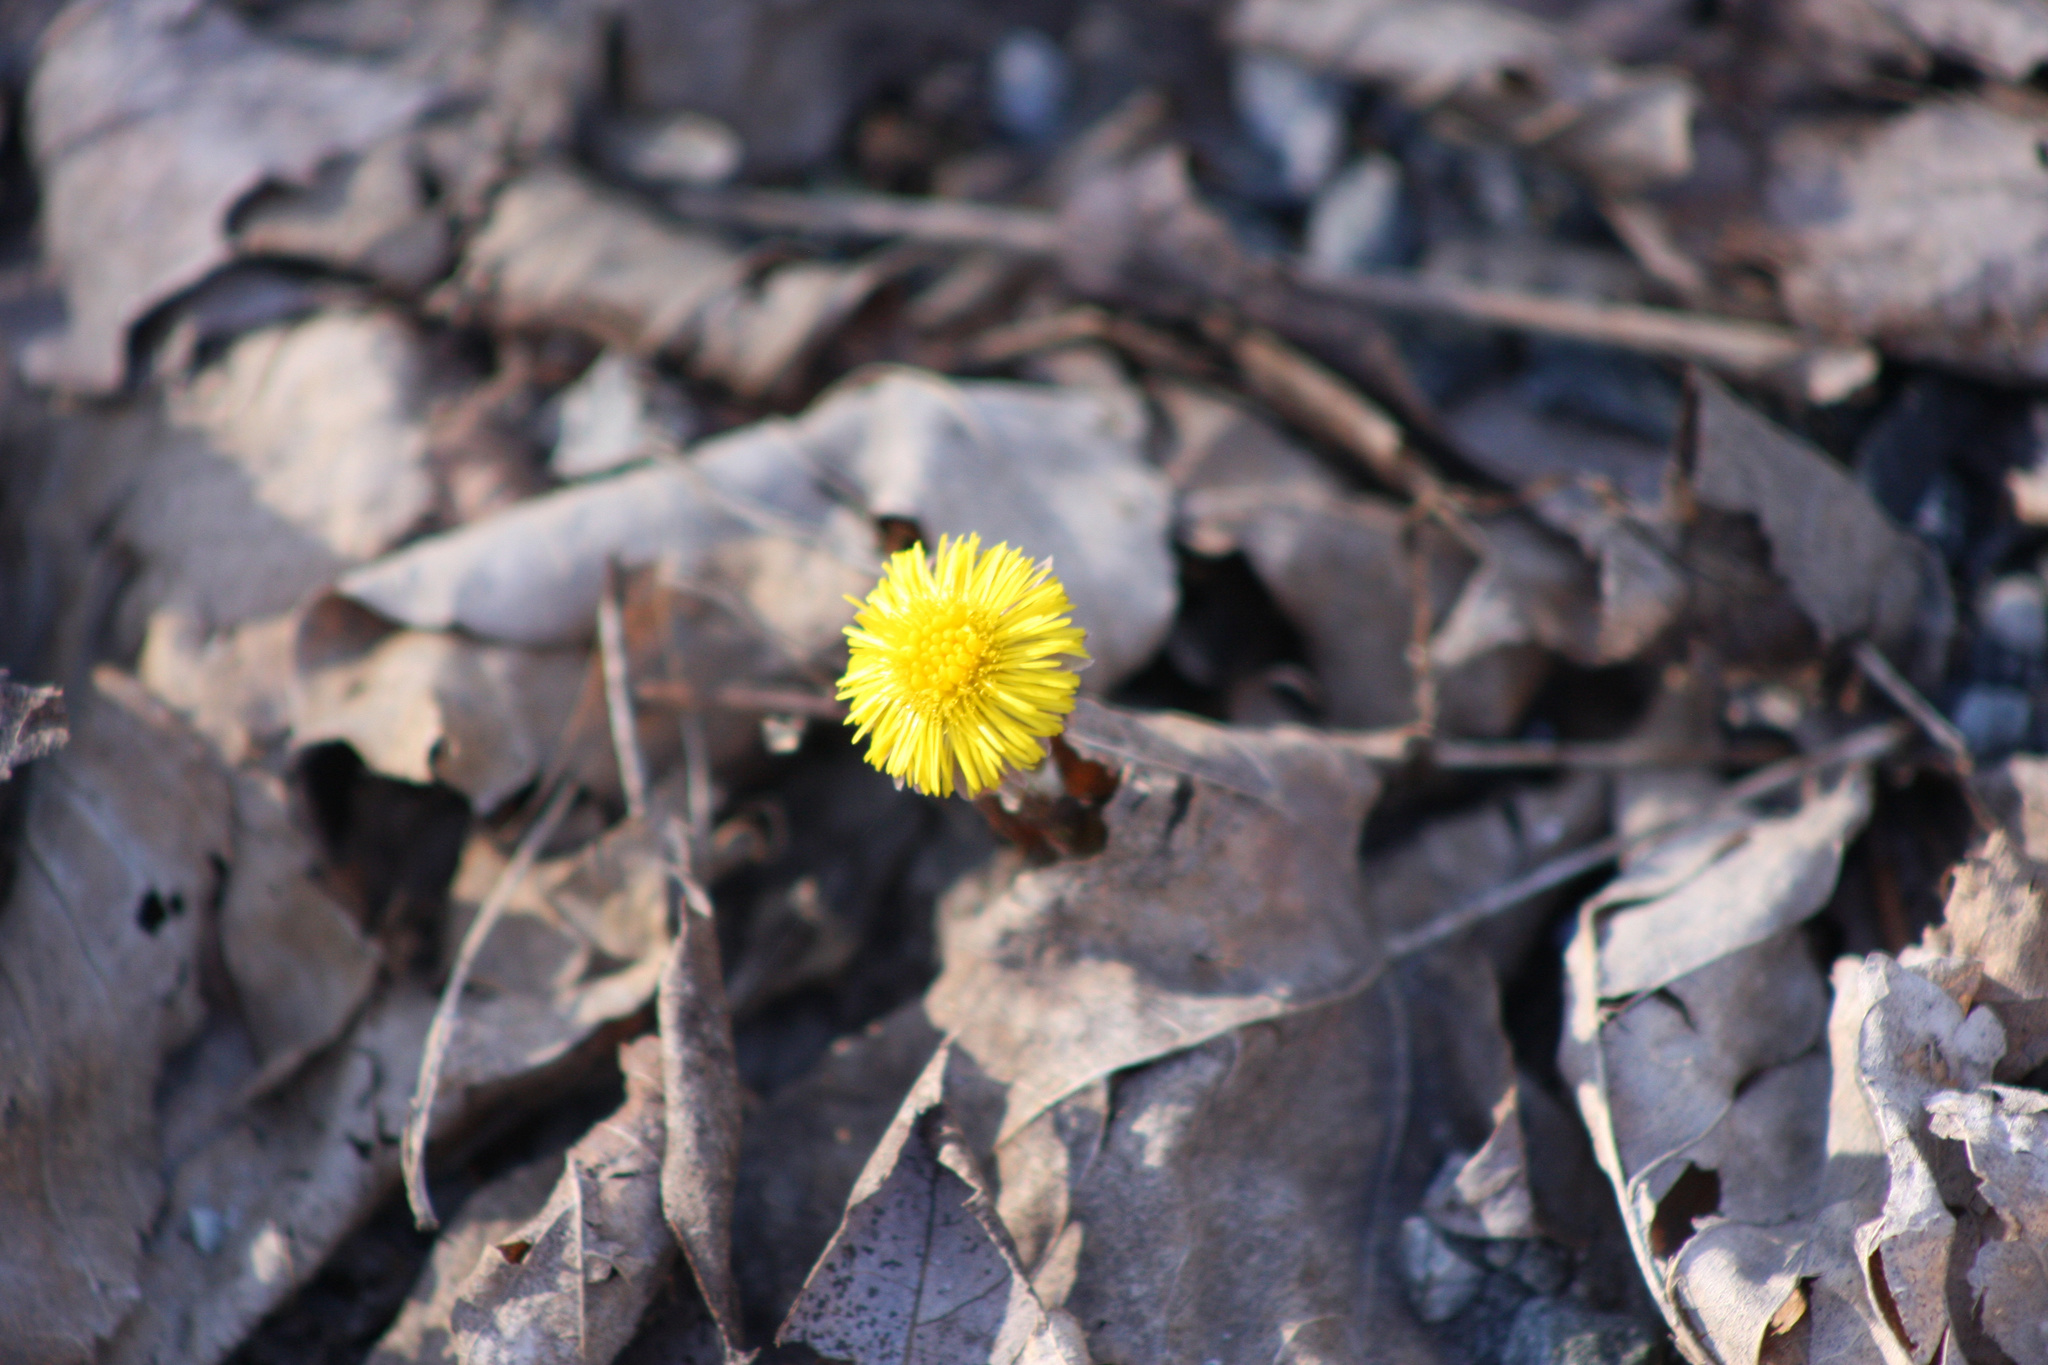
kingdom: Plantae
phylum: Tracheophyta
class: Magnoliopsida
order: Asterales
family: Asteraceae
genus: Tussilago
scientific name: Tussilago farfara
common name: Coltsfoot
